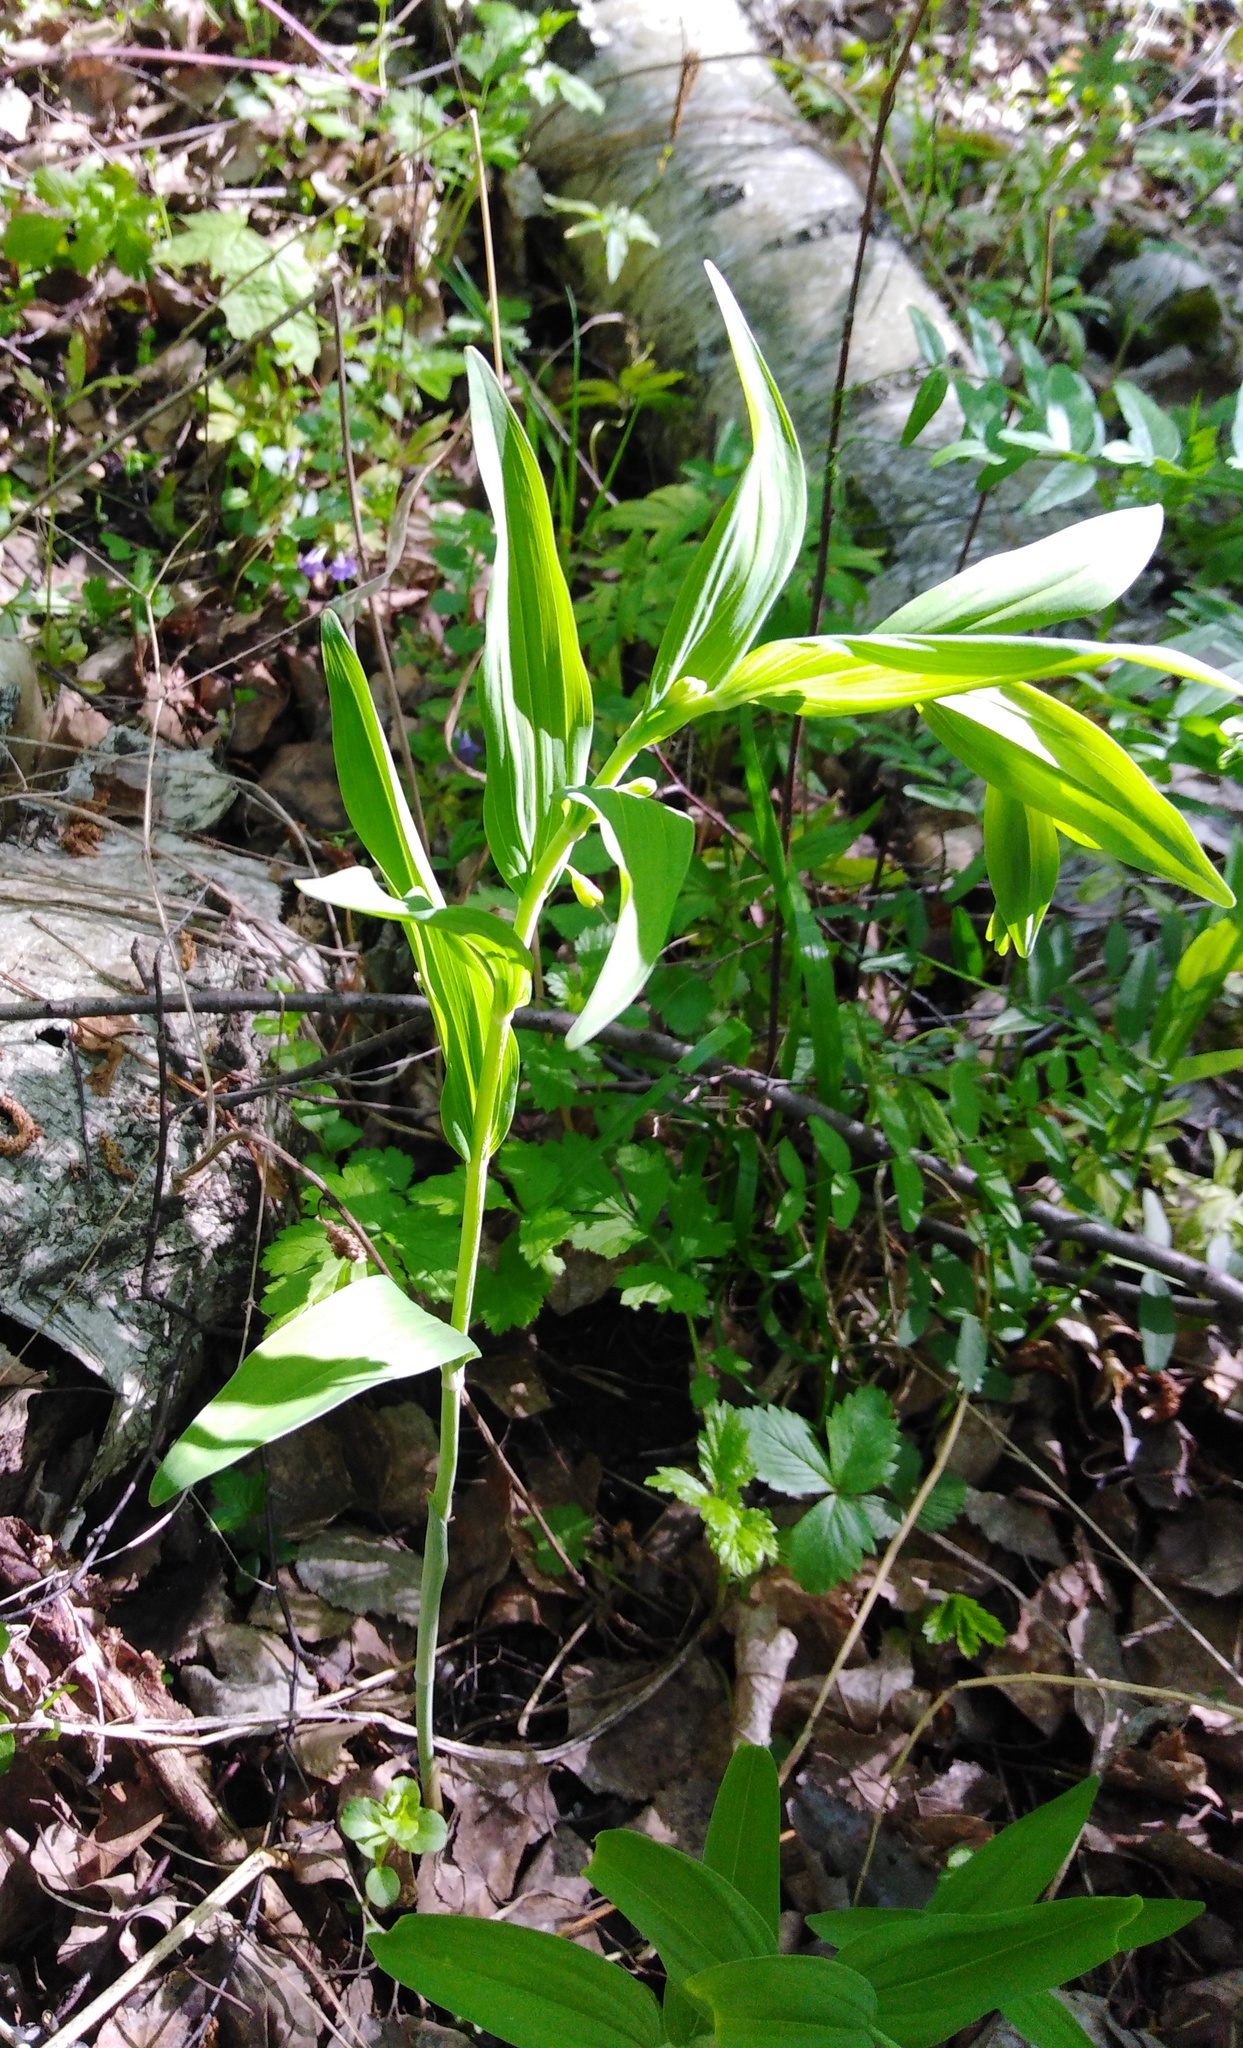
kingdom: Plantae
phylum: Tracheophyta
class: Liliopsida
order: Asparagales
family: Asparagaceae
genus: Polygonatum
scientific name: Polygonatum multiflorum
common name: Solomon's-seal
